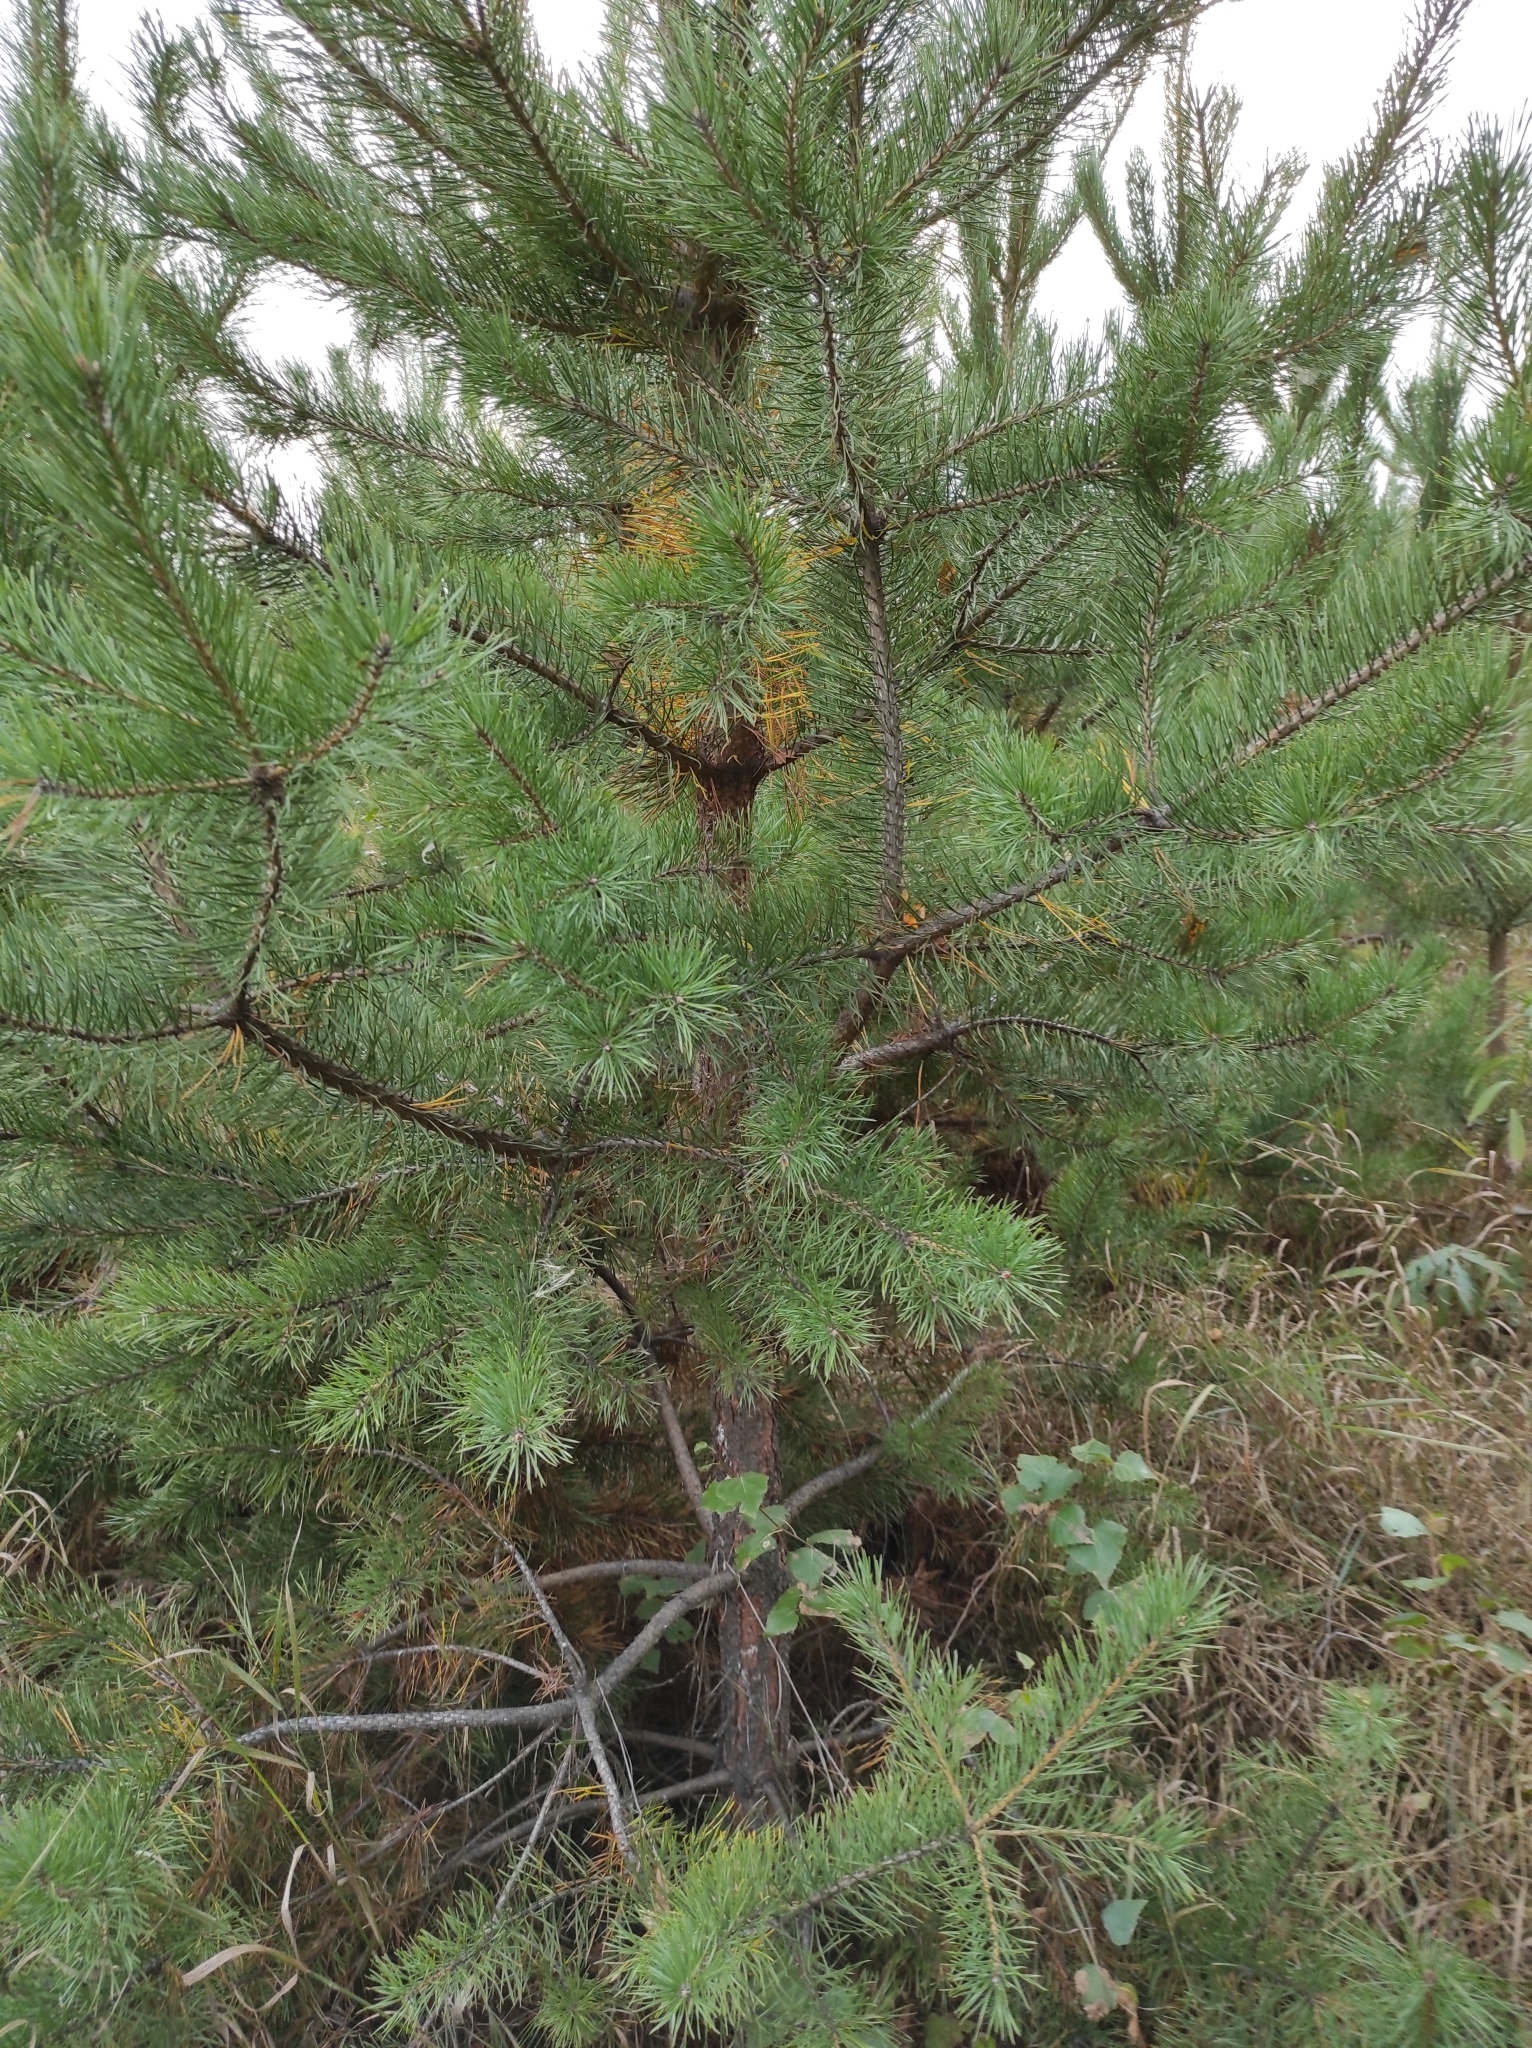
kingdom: Plantae
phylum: Tracheophyta
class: Pinopsida
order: Pinales
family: Pinaceae
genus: Pinus
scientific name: Pinus sylvestris
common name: Scots pine
